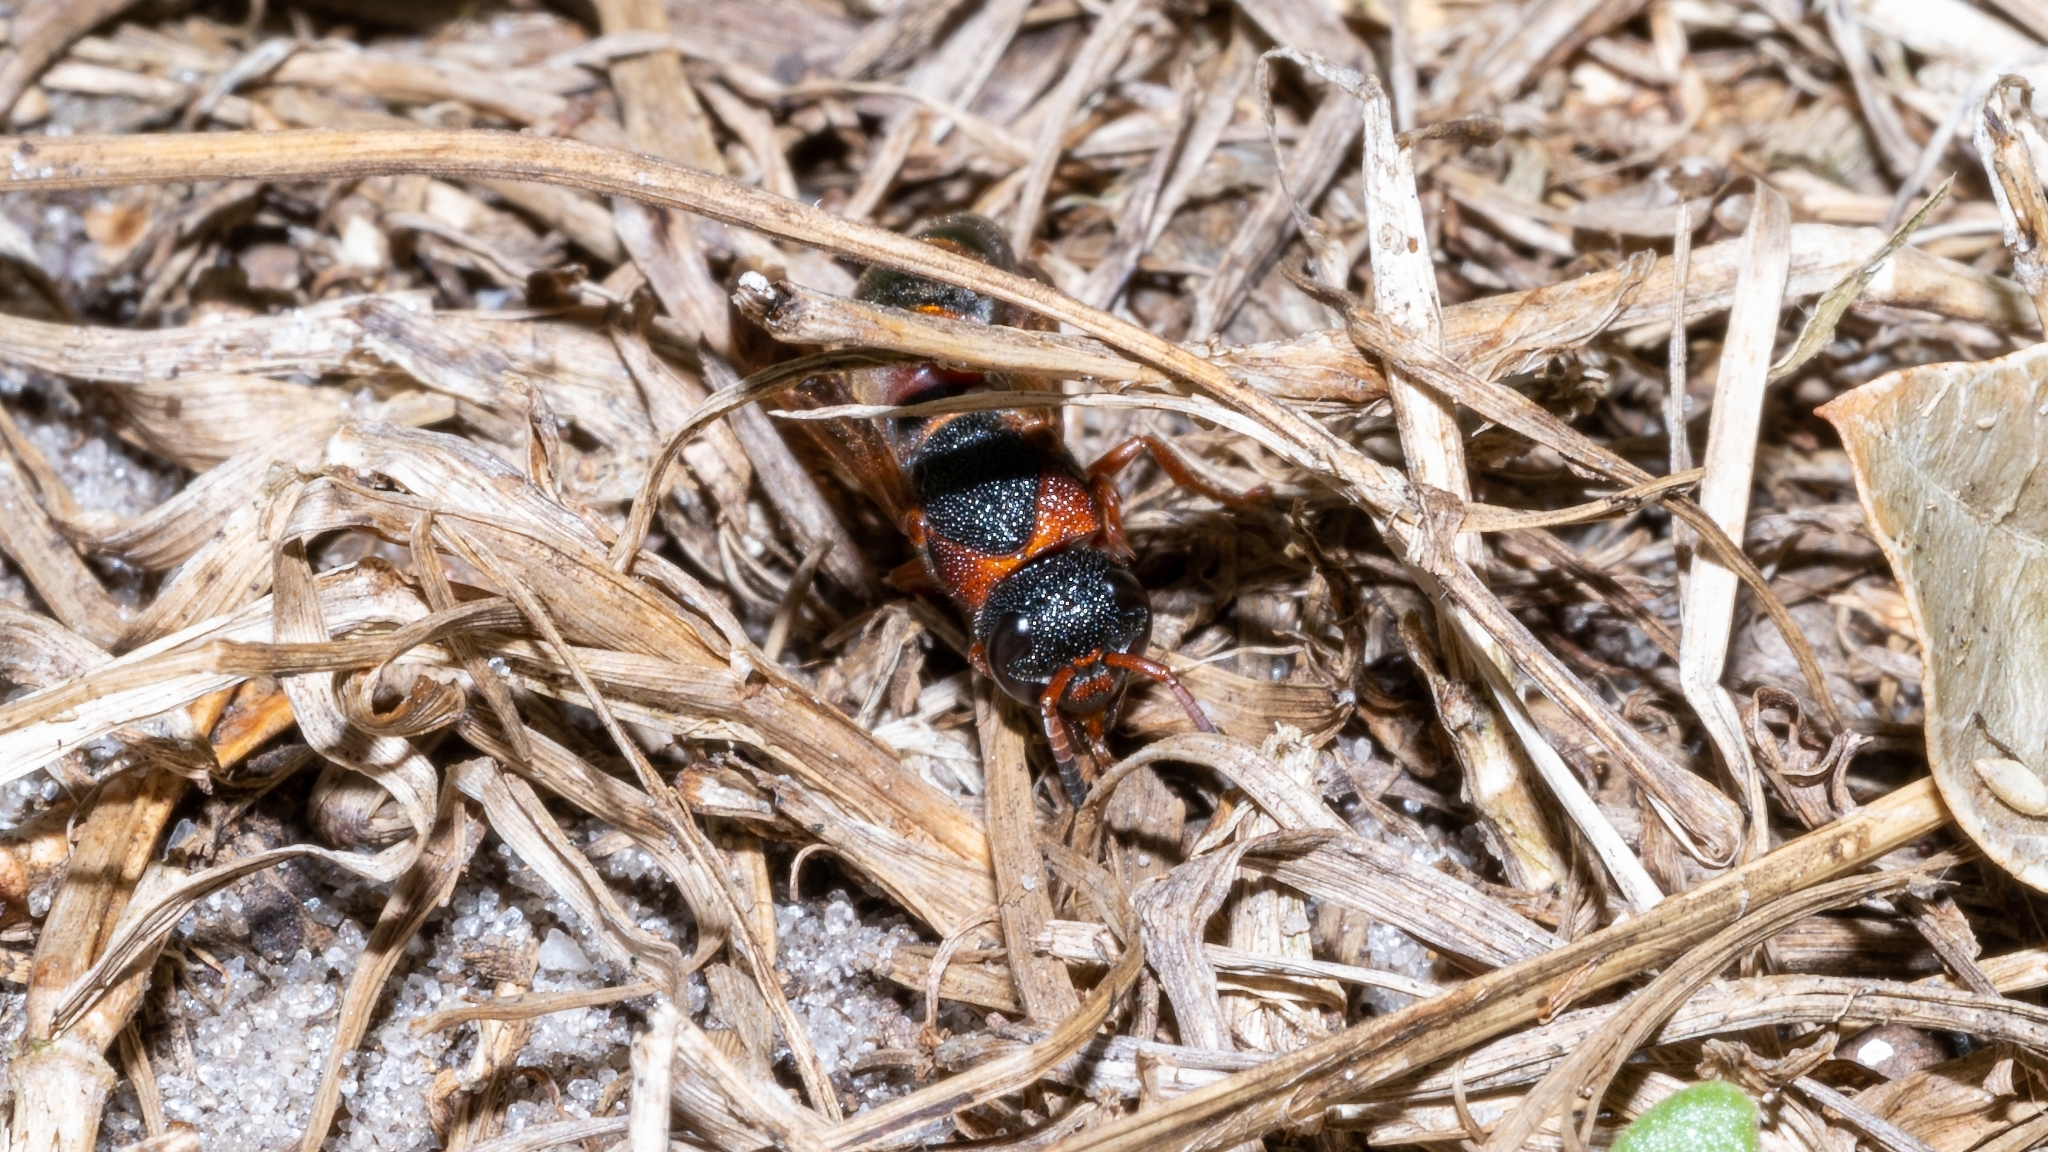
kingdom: Animalia
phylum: Arthropoda
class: Insecta
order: Hymenoptera
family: Eumenidae
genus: Pachodynerus
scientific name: Pachodynerus erynnis
